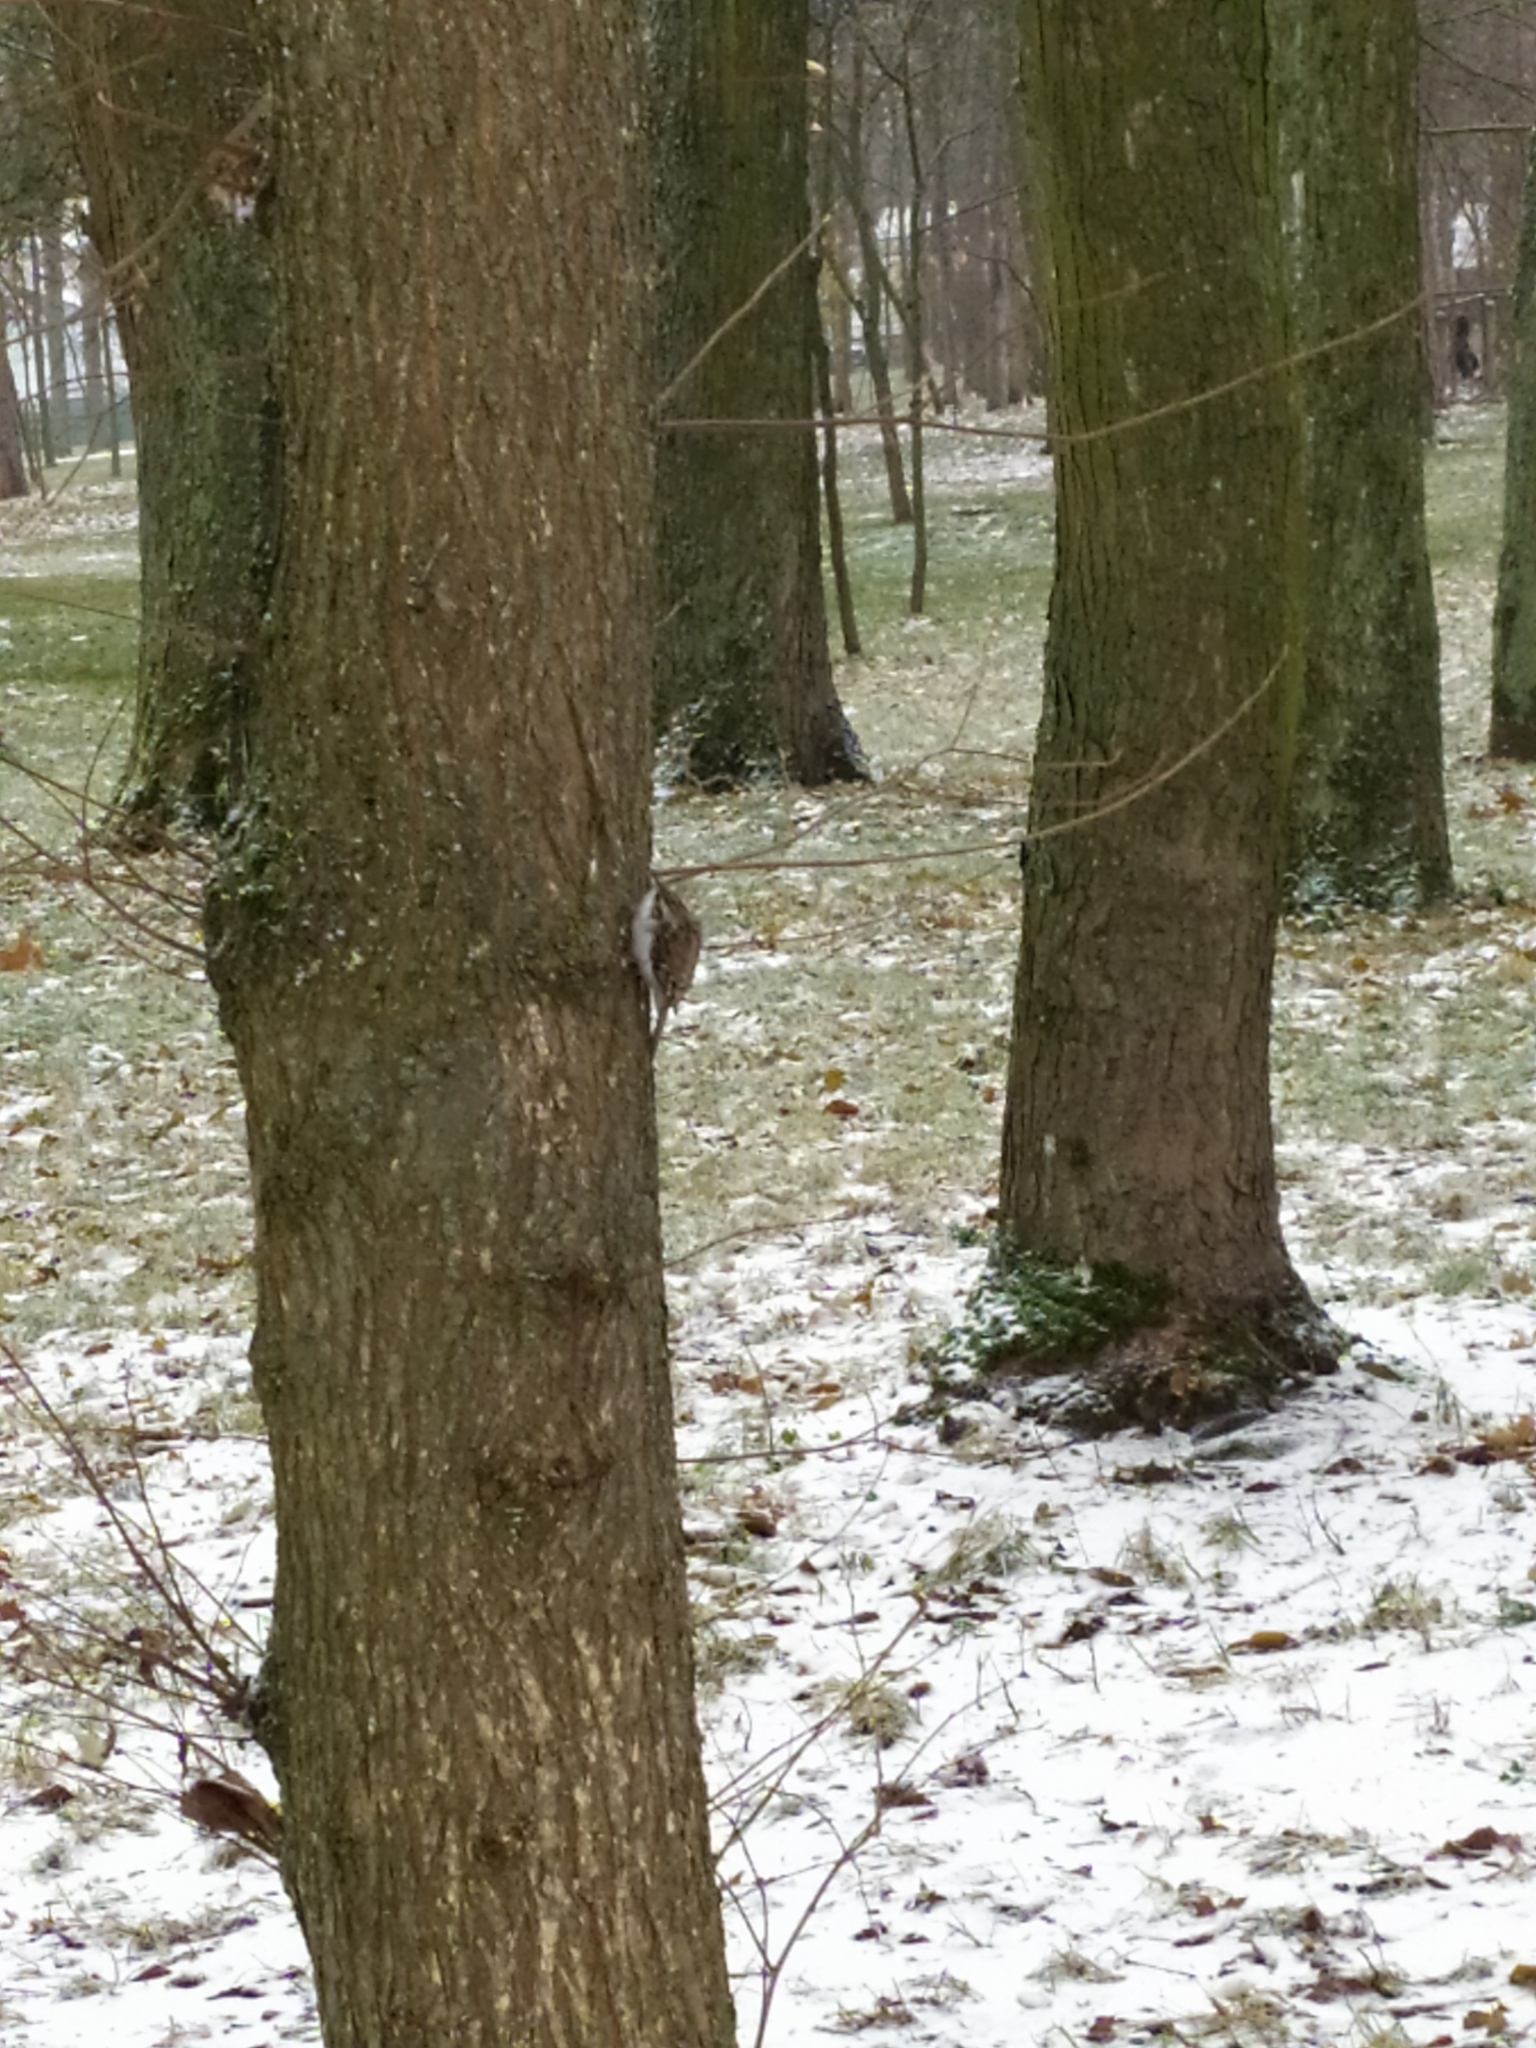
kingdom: Animalia
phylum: Chordata
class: Aves
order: Passeriformes
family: Certhiidae
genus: Certhia
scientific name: Certhia familiaris
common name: Eurasian treecreeper
